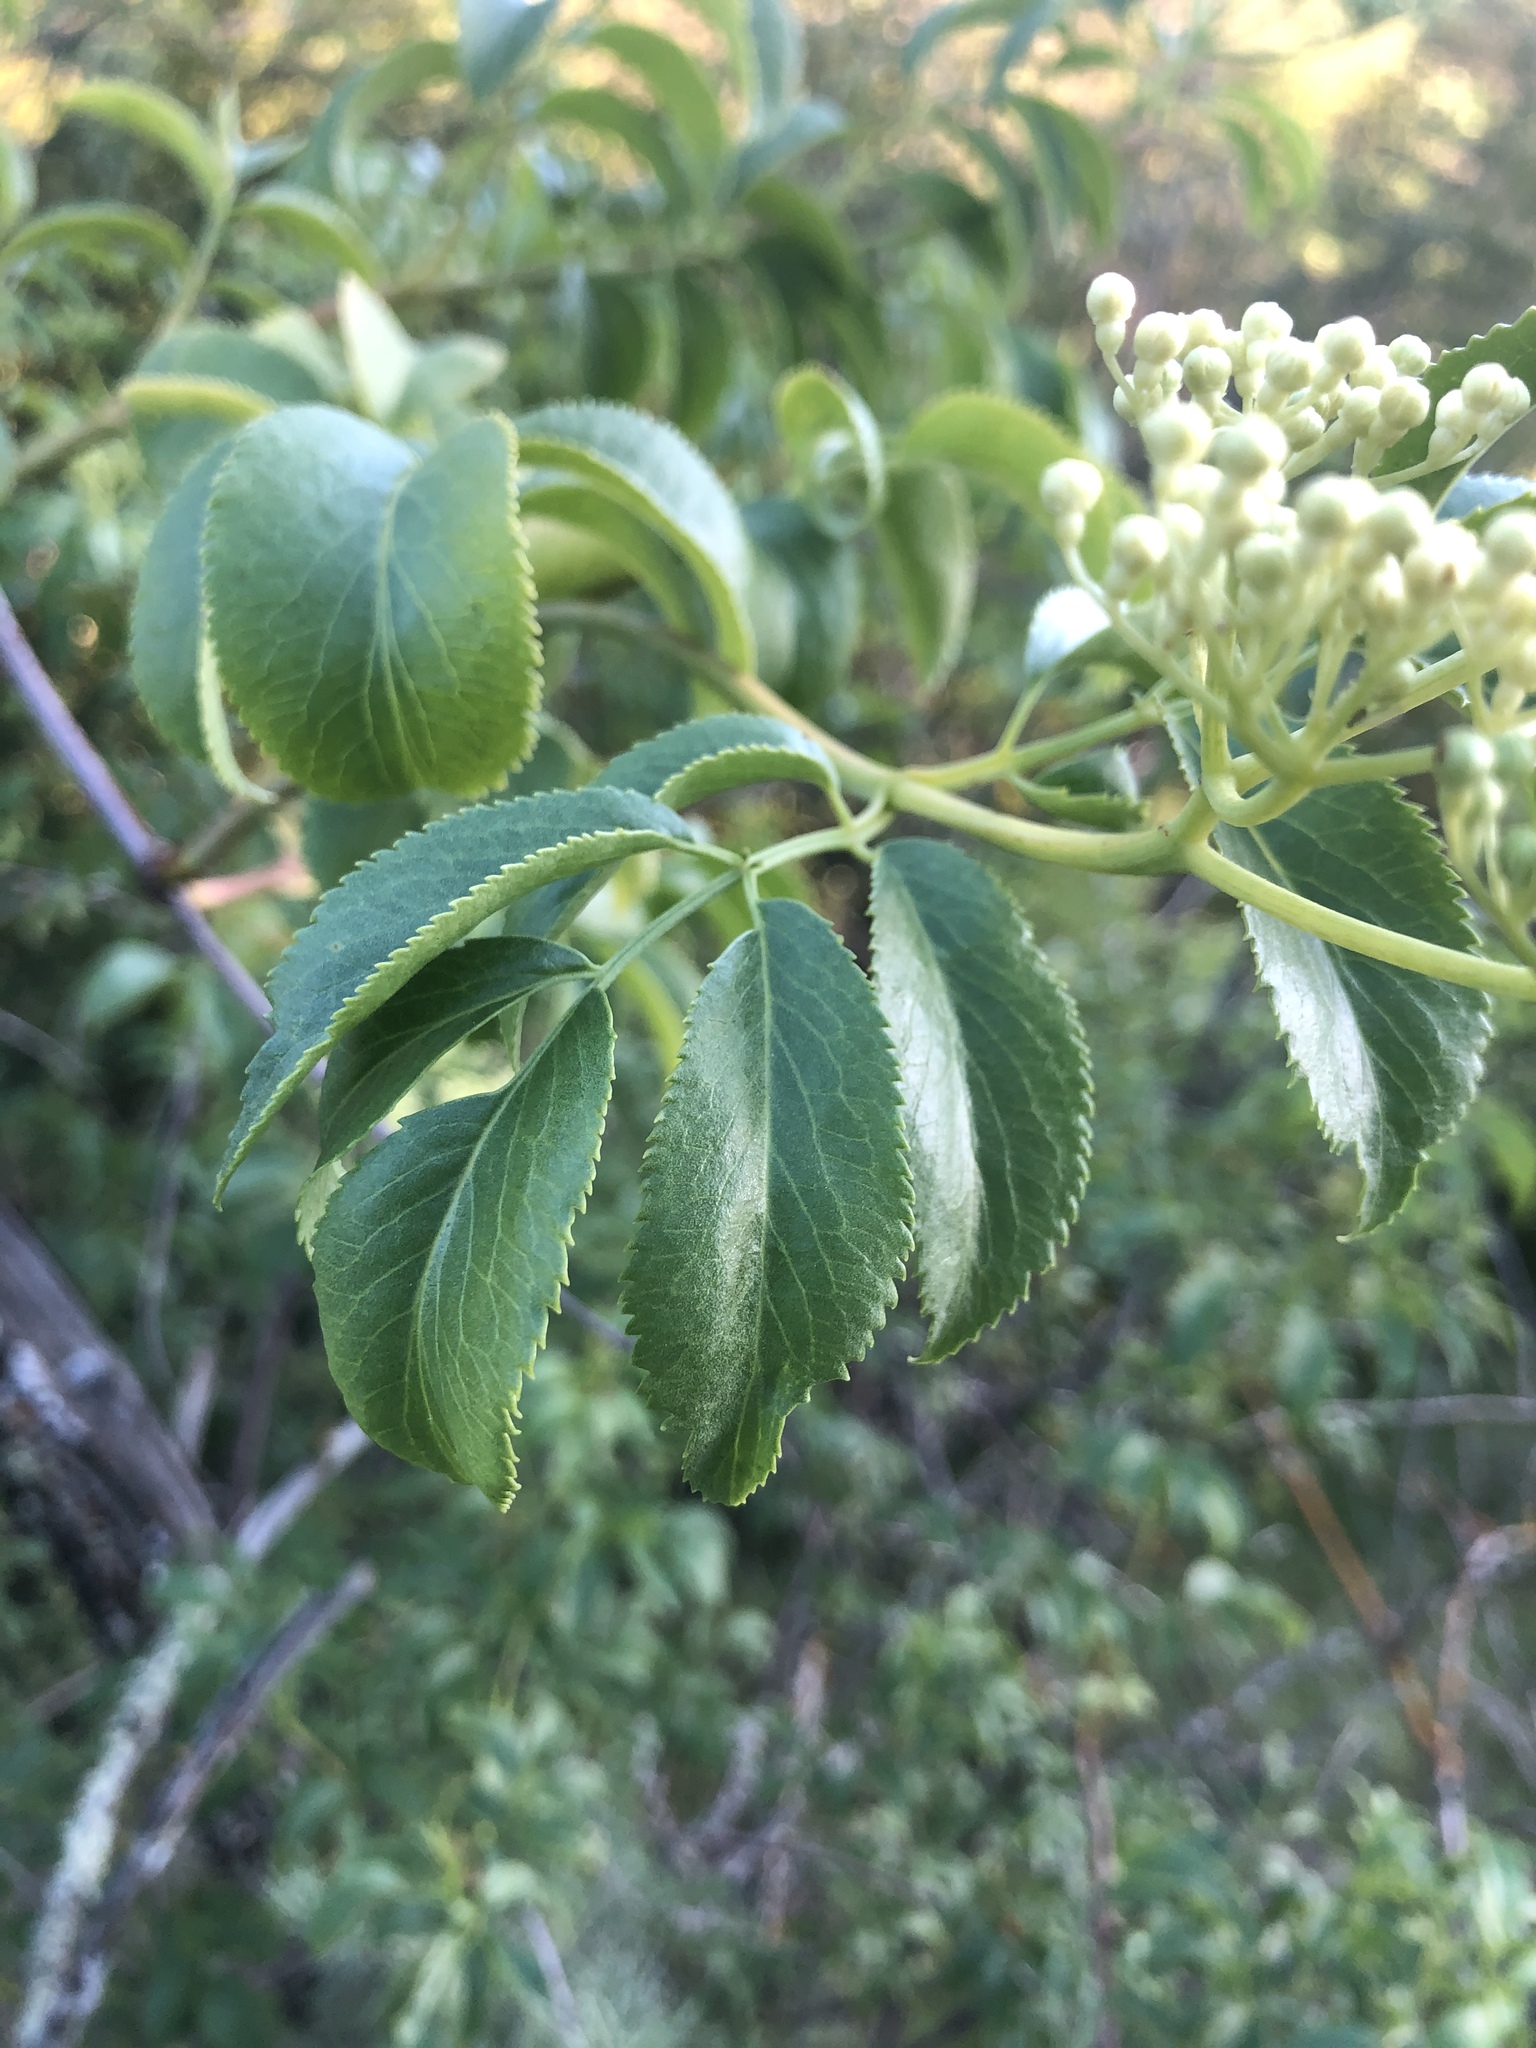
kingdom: Plantae
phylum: Tracheophyta
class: Magnoliopsida
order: Dipsacales
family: Viburnaceae
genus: Sambucus
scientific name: Sambucus cerulea
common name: Blue elder
